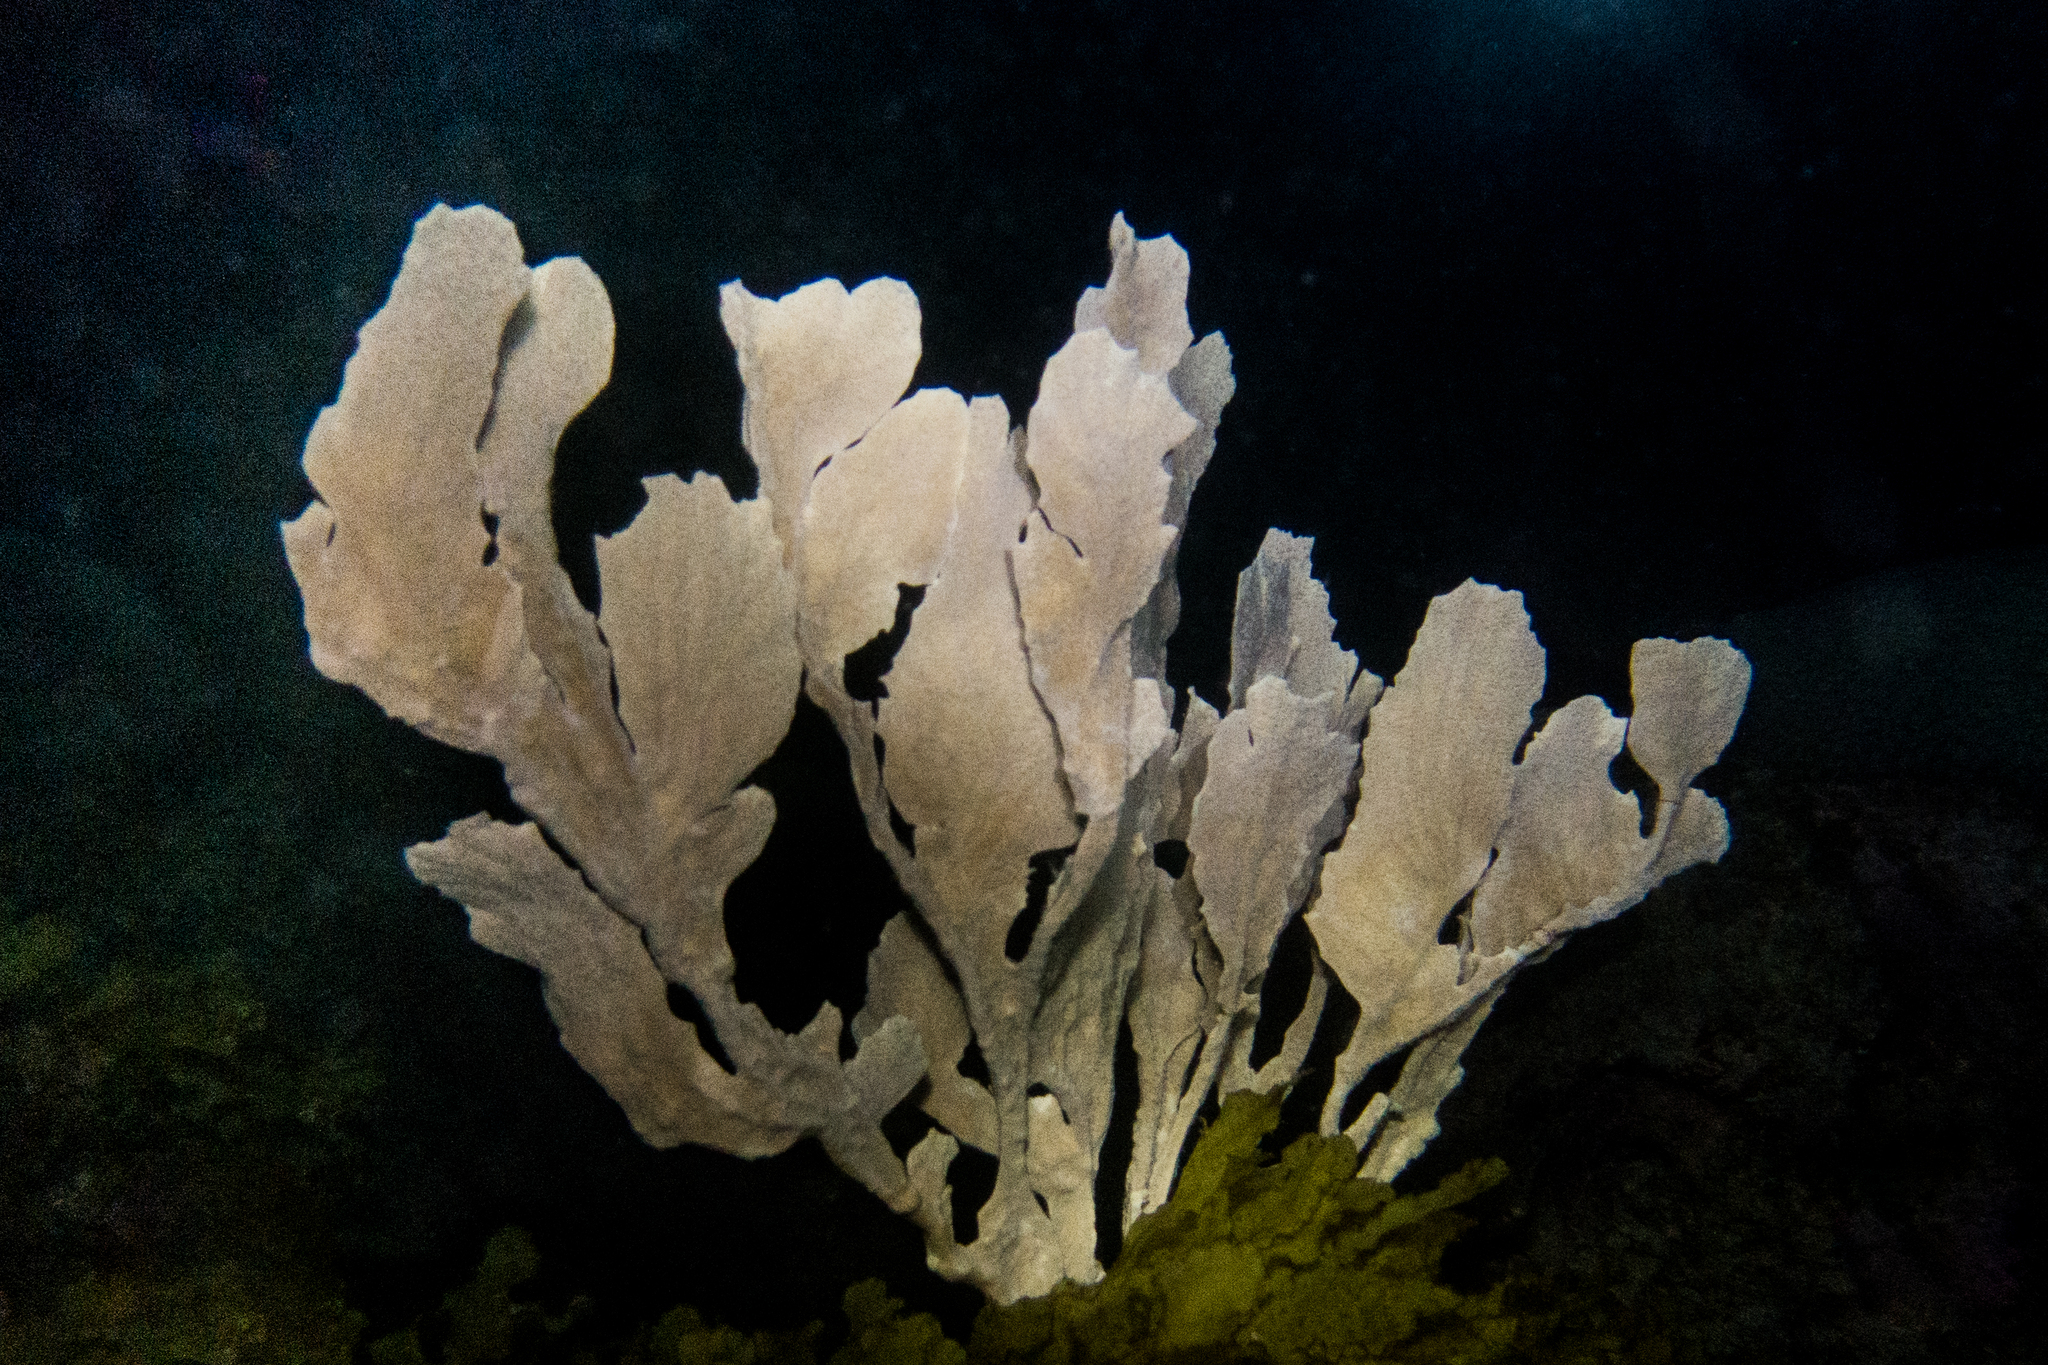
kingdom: Animalia
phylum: Cnidaria
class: Anthozoa
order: Malacalcyonacea
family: Gorgoniidae
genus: Phyllogorgia
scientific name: Phyllogorgia dilatata
